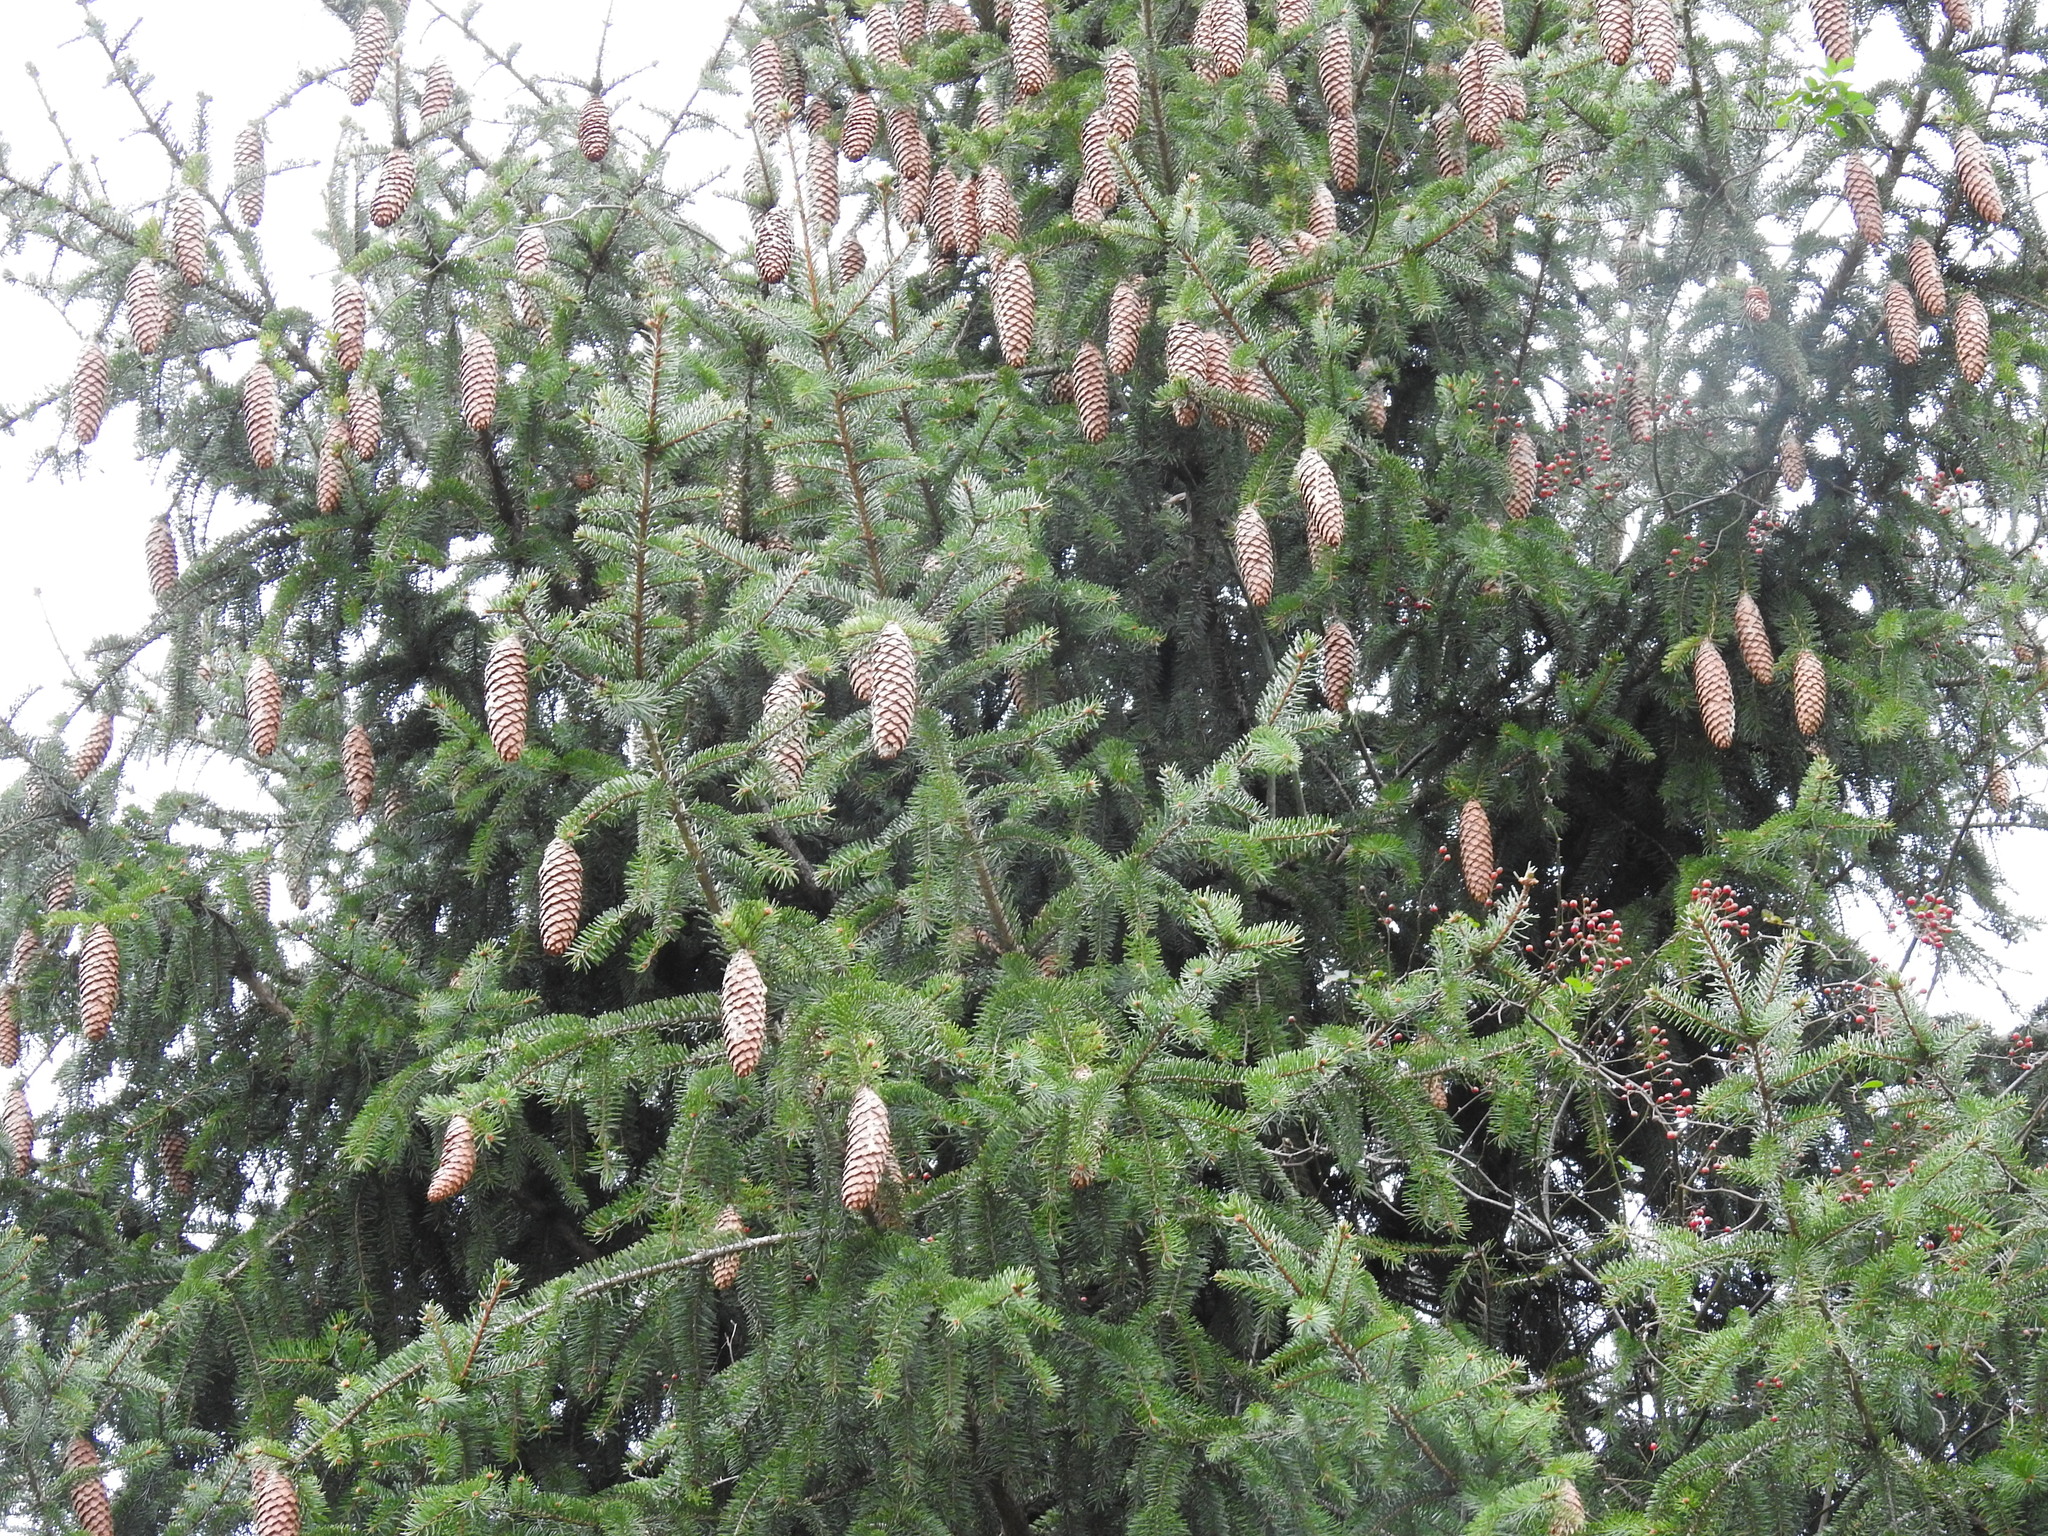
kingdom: Plantae
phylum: Tracheophyta
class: Pinopsida
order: Pinales
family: Pinaceae
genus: Picea
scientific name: Picea abies
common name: Norway spruce
